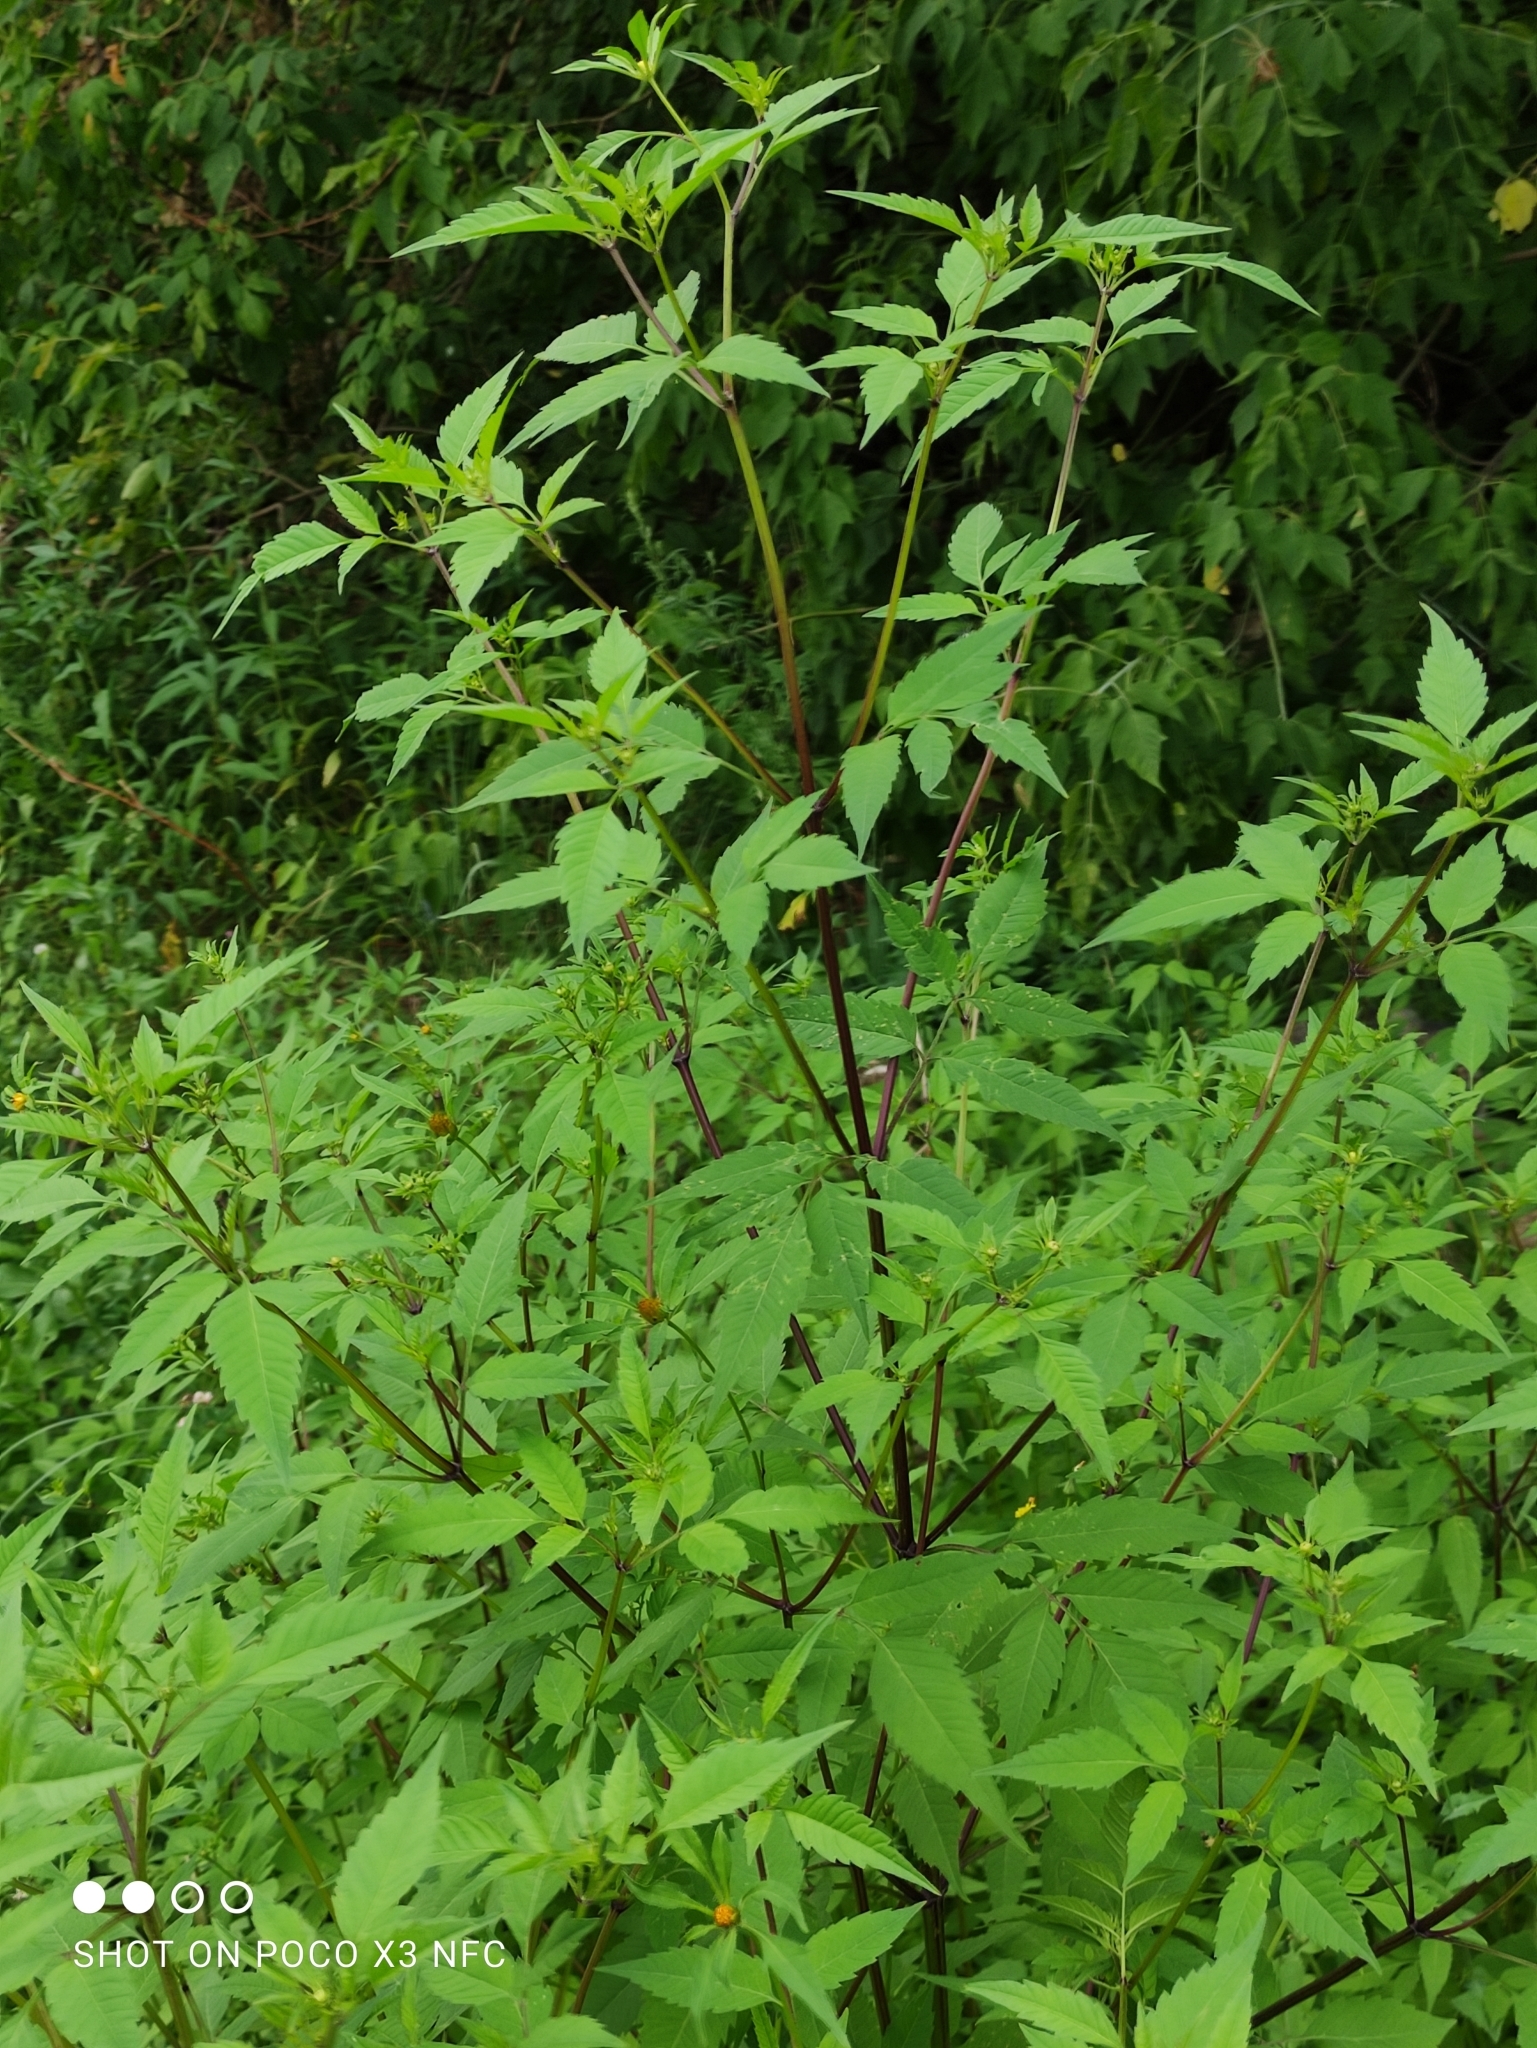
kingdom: Plantae
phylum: Tracheophyta
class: Magnoliopsida
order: Asterales
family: Asteraceae
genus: Bidens
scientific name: Bidens frondosa
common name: Beggarticks
